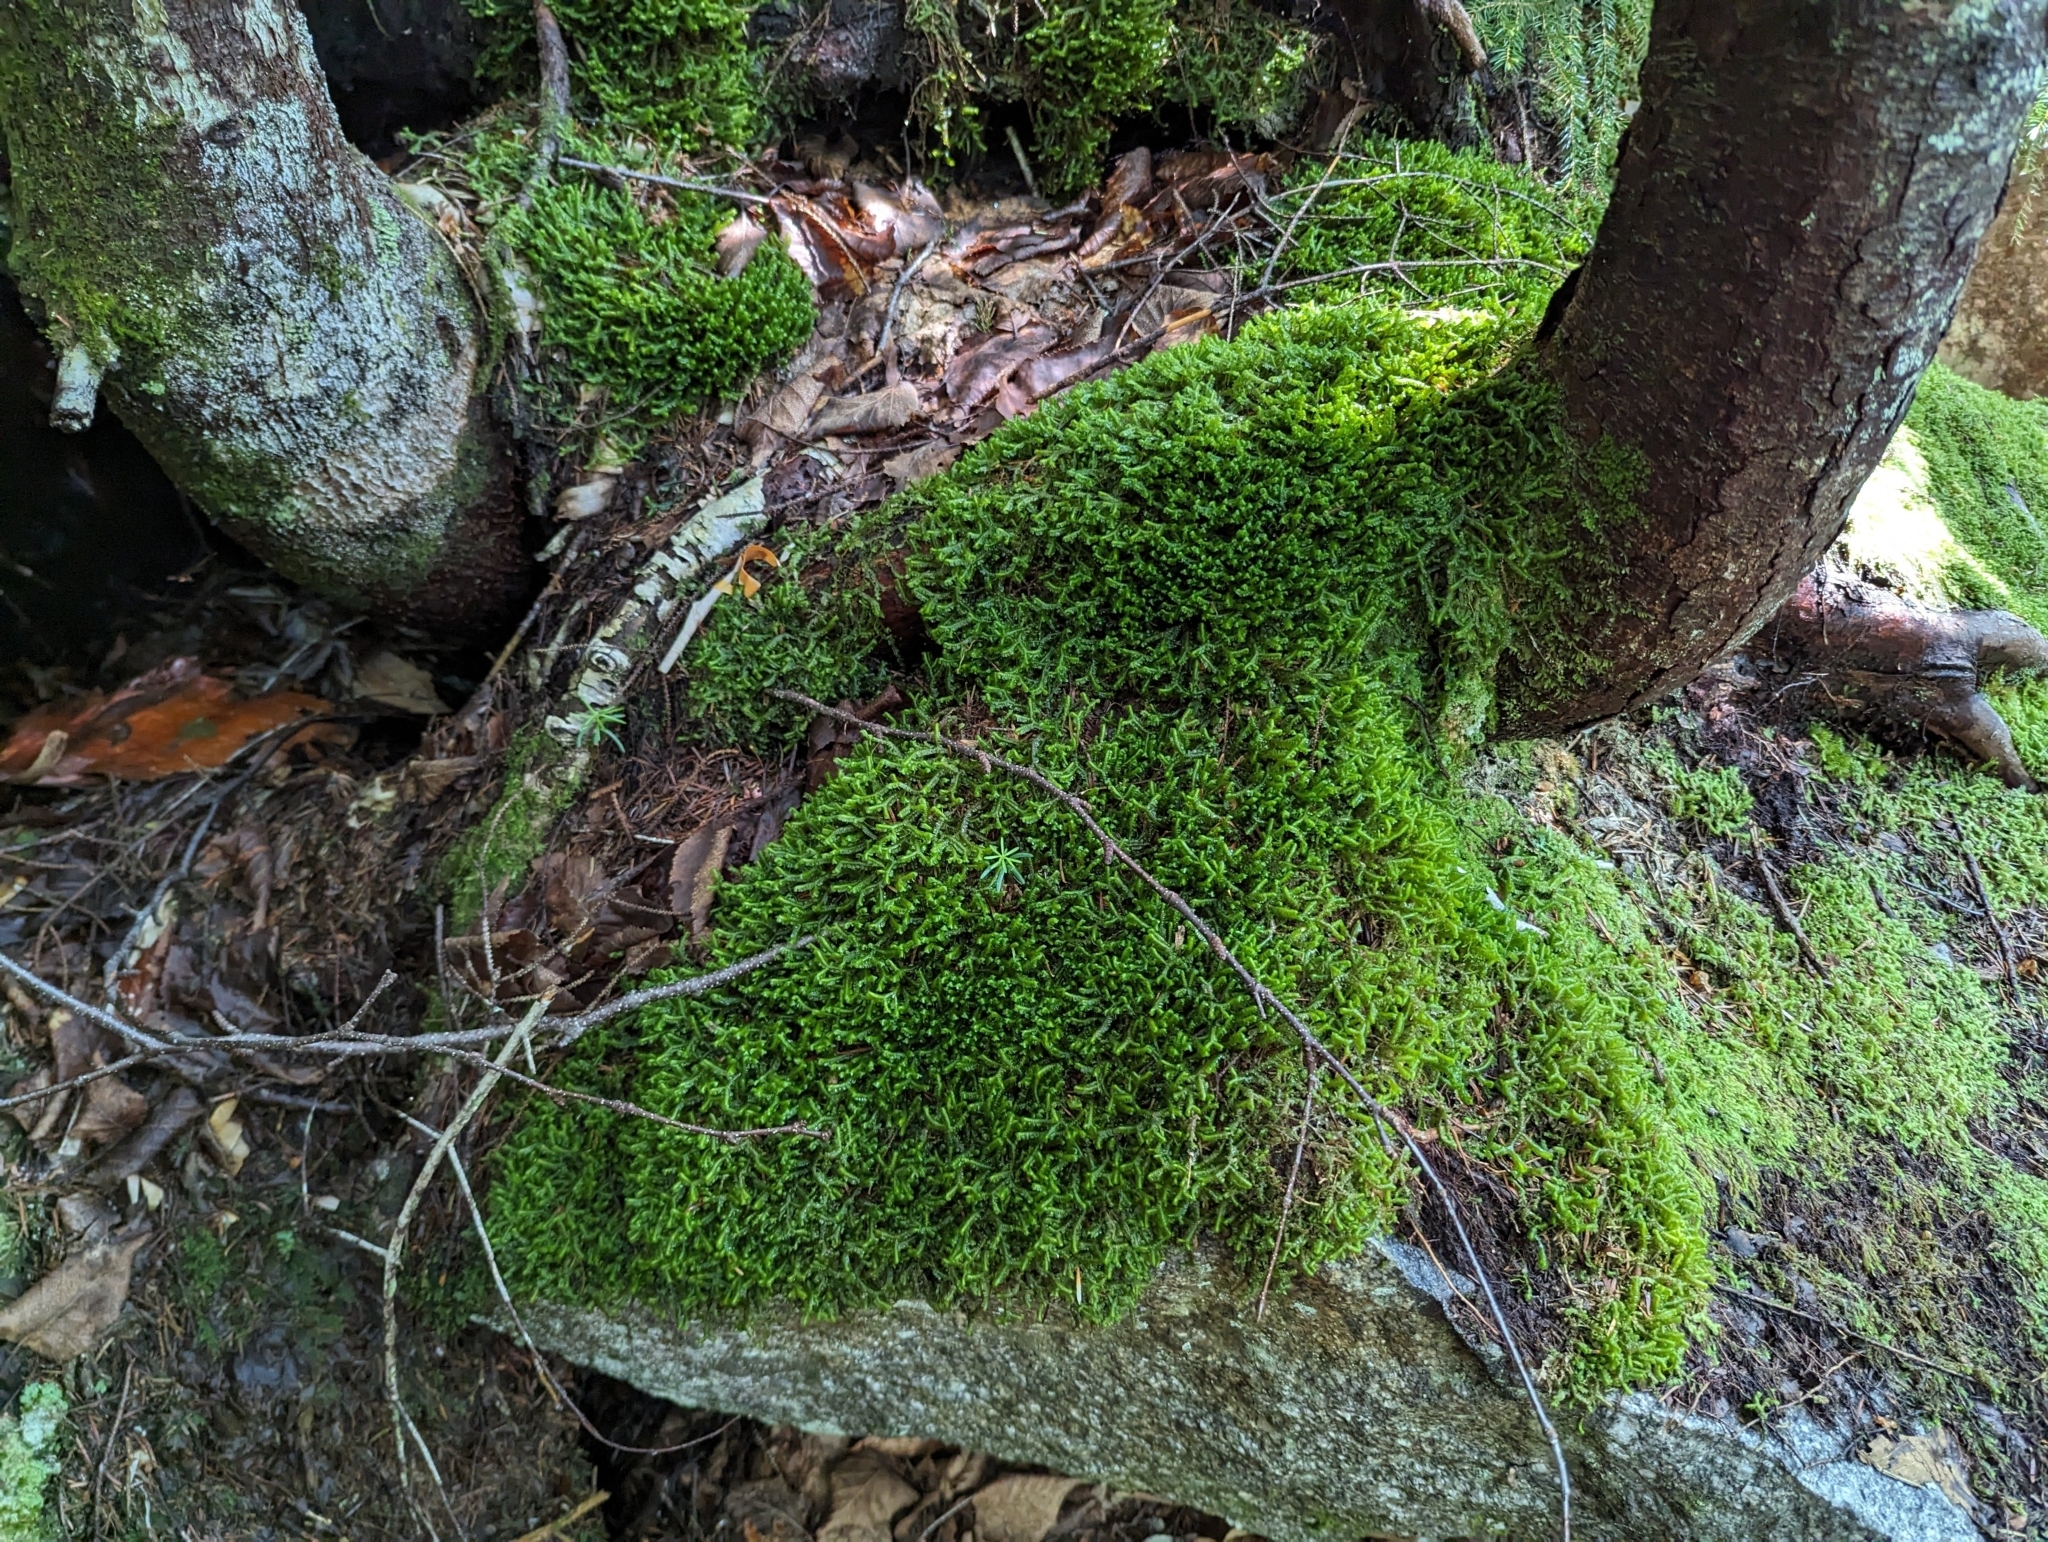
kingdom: Plantae
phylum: Marchantiophyta
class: Jungermanniopsida
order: Jungermanniales
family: Lepidoziaceae
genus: Bazzania
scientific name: Bazzania trilobata
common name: Three-lobed whipwort
